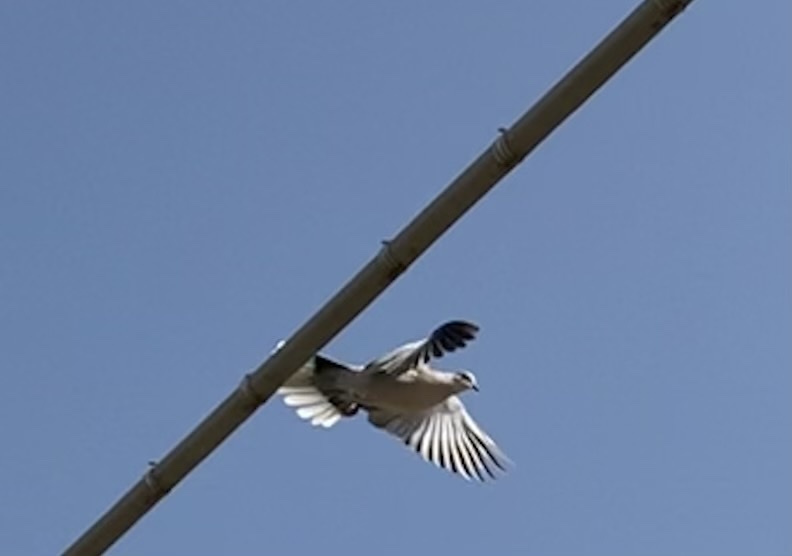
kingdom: Animalia
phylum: Chordata
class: Aves
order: Columbiformes
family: Columbidae
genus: Streptopelia
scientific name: Streptopelia decaocto
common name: Eurasian collared dove
